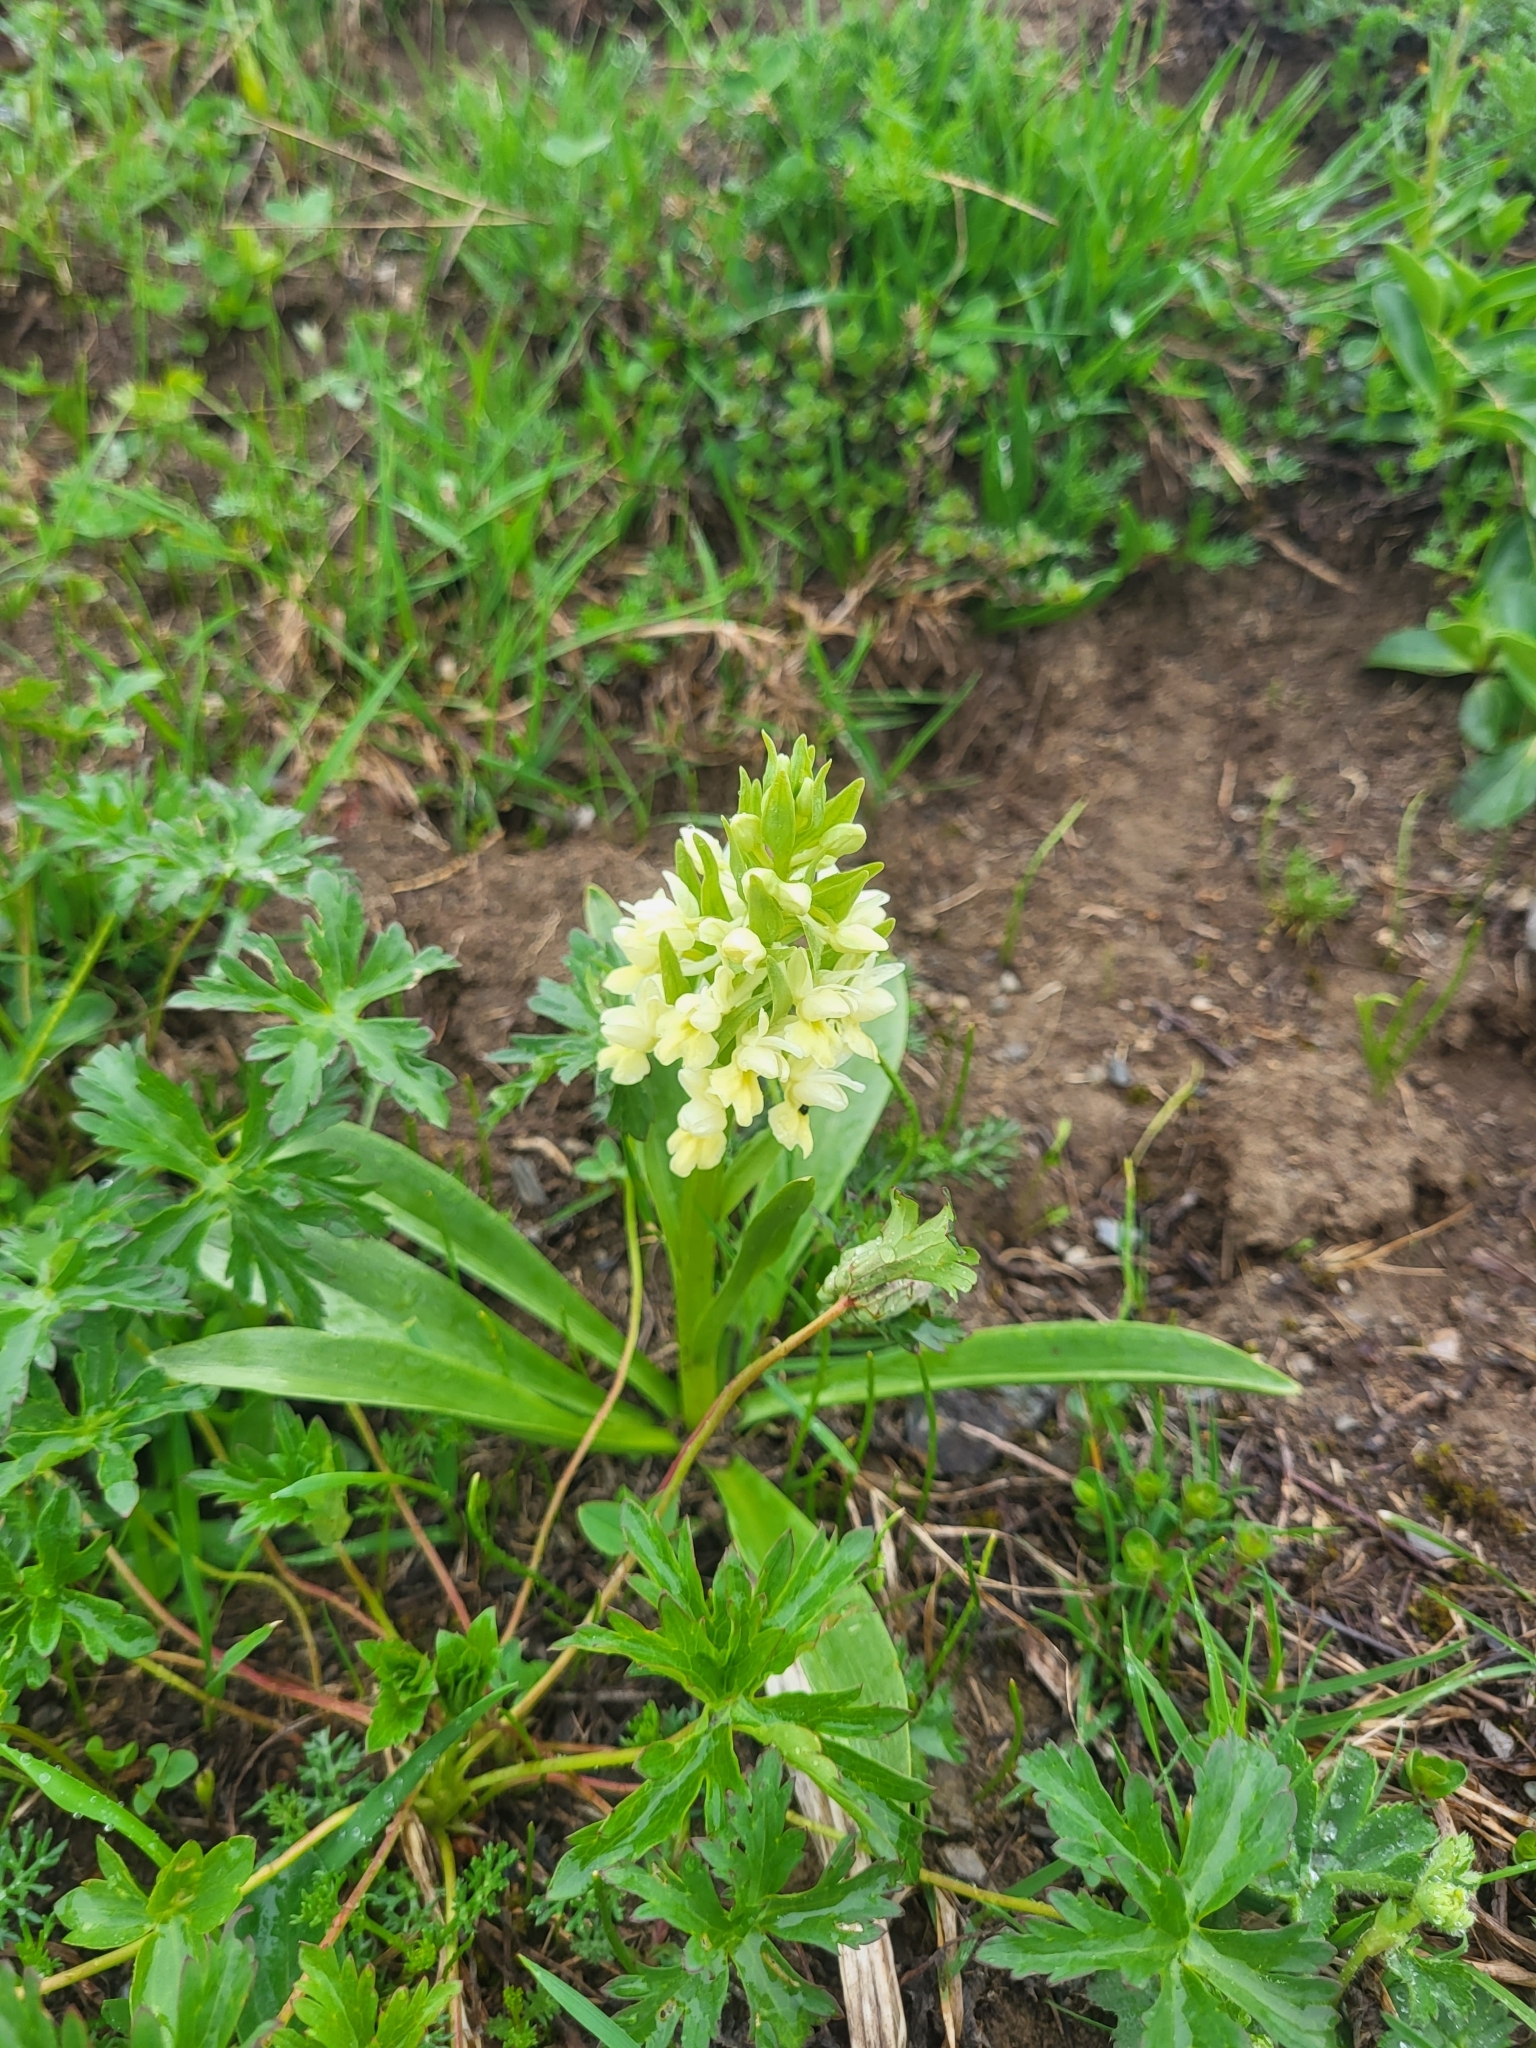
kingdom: Plantae
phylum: Tracheophyta
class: Liliopsida
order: Asparagales
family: Orchidaceae
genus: Dactylorhiza
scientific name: Dactylorhiza romana
